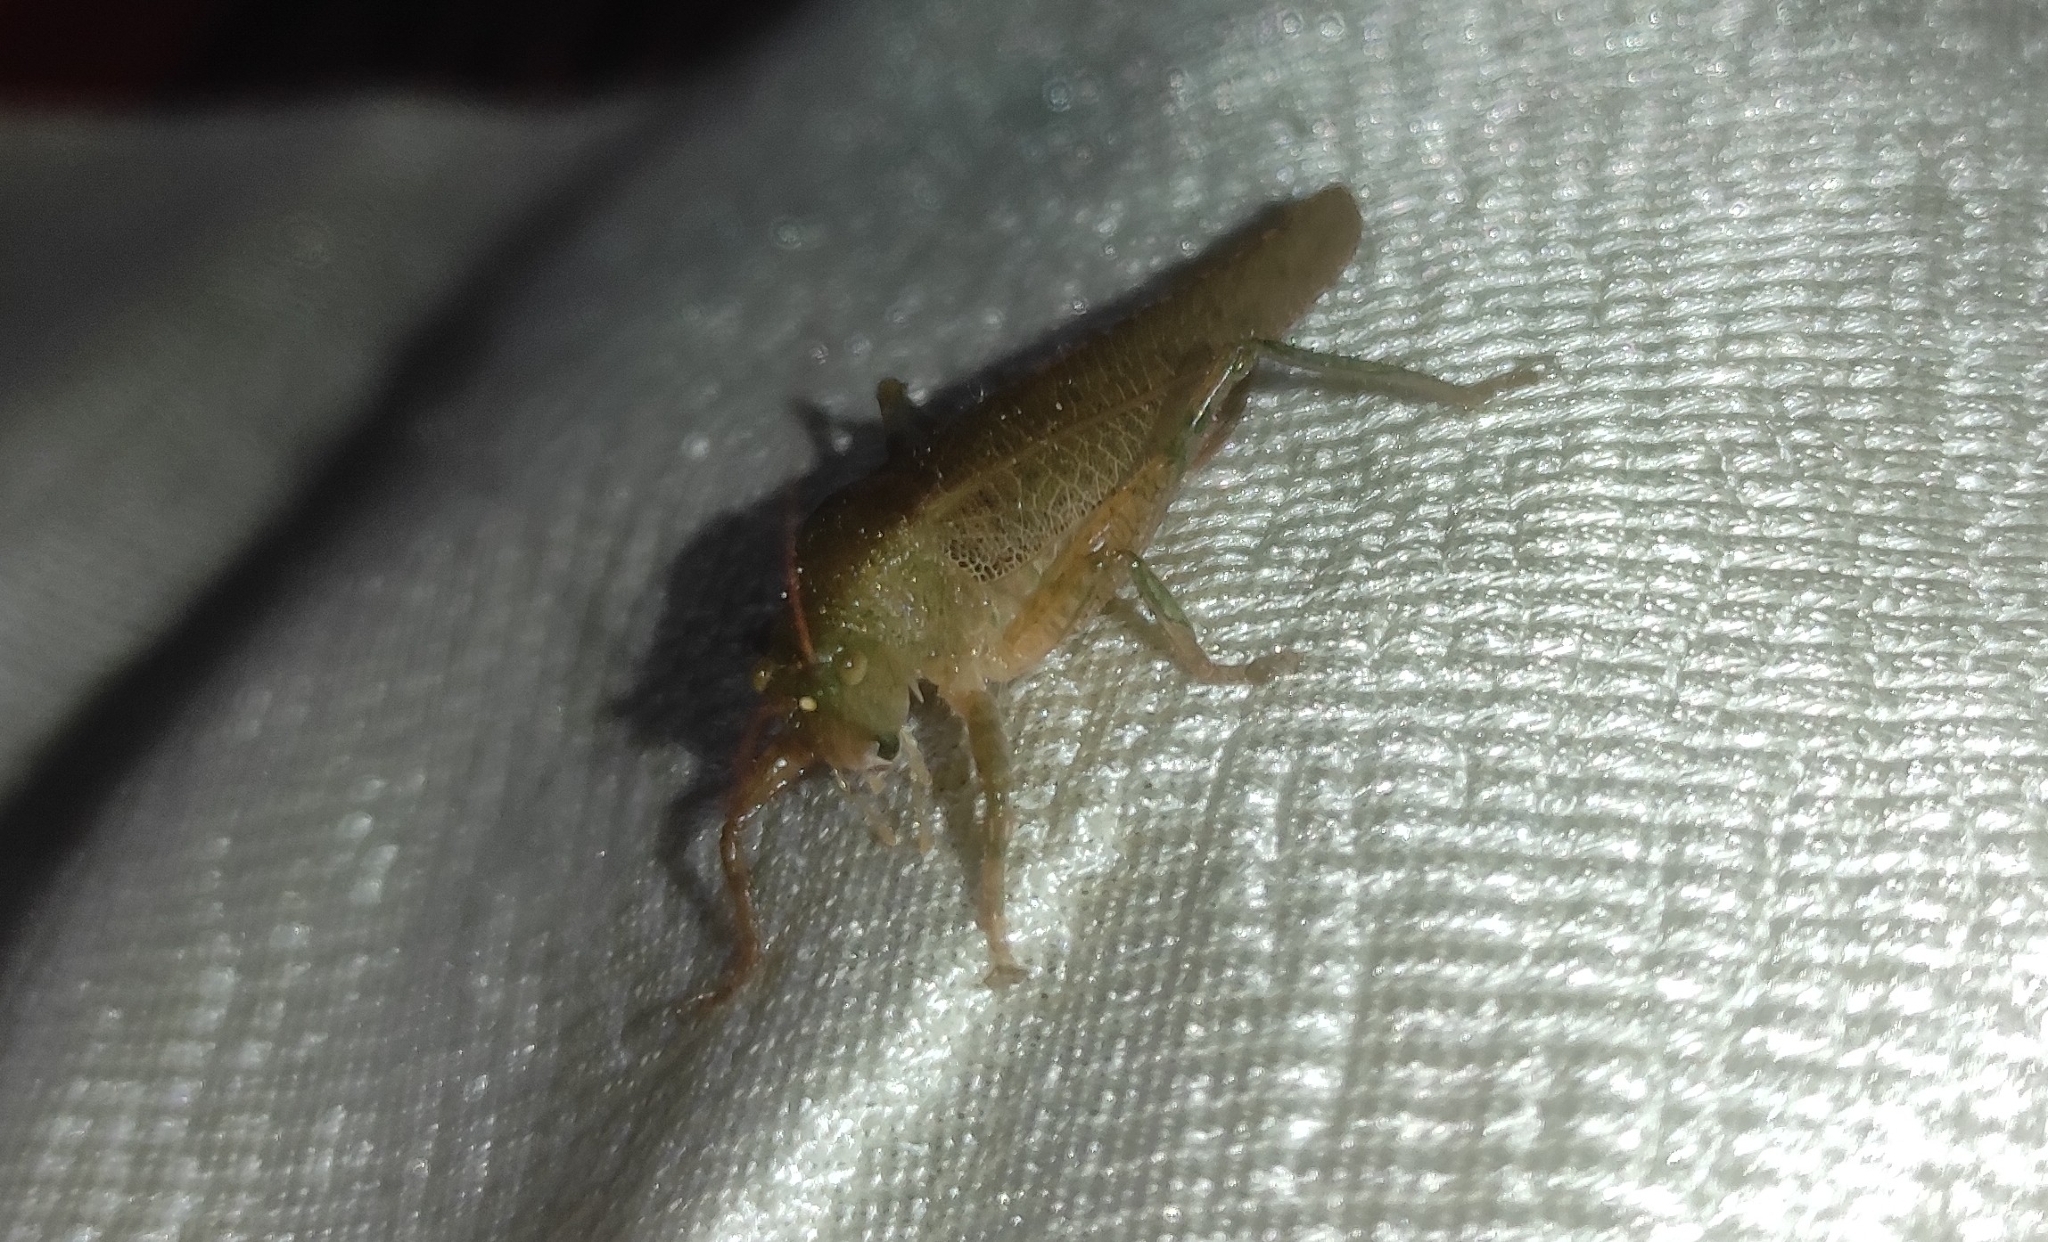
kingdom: Animalia
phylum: Arthropoda
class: Insecta
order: Orthoptera
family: Tettigoniidae
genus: Oxylakis
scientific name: Oxylakis truncatipennis
